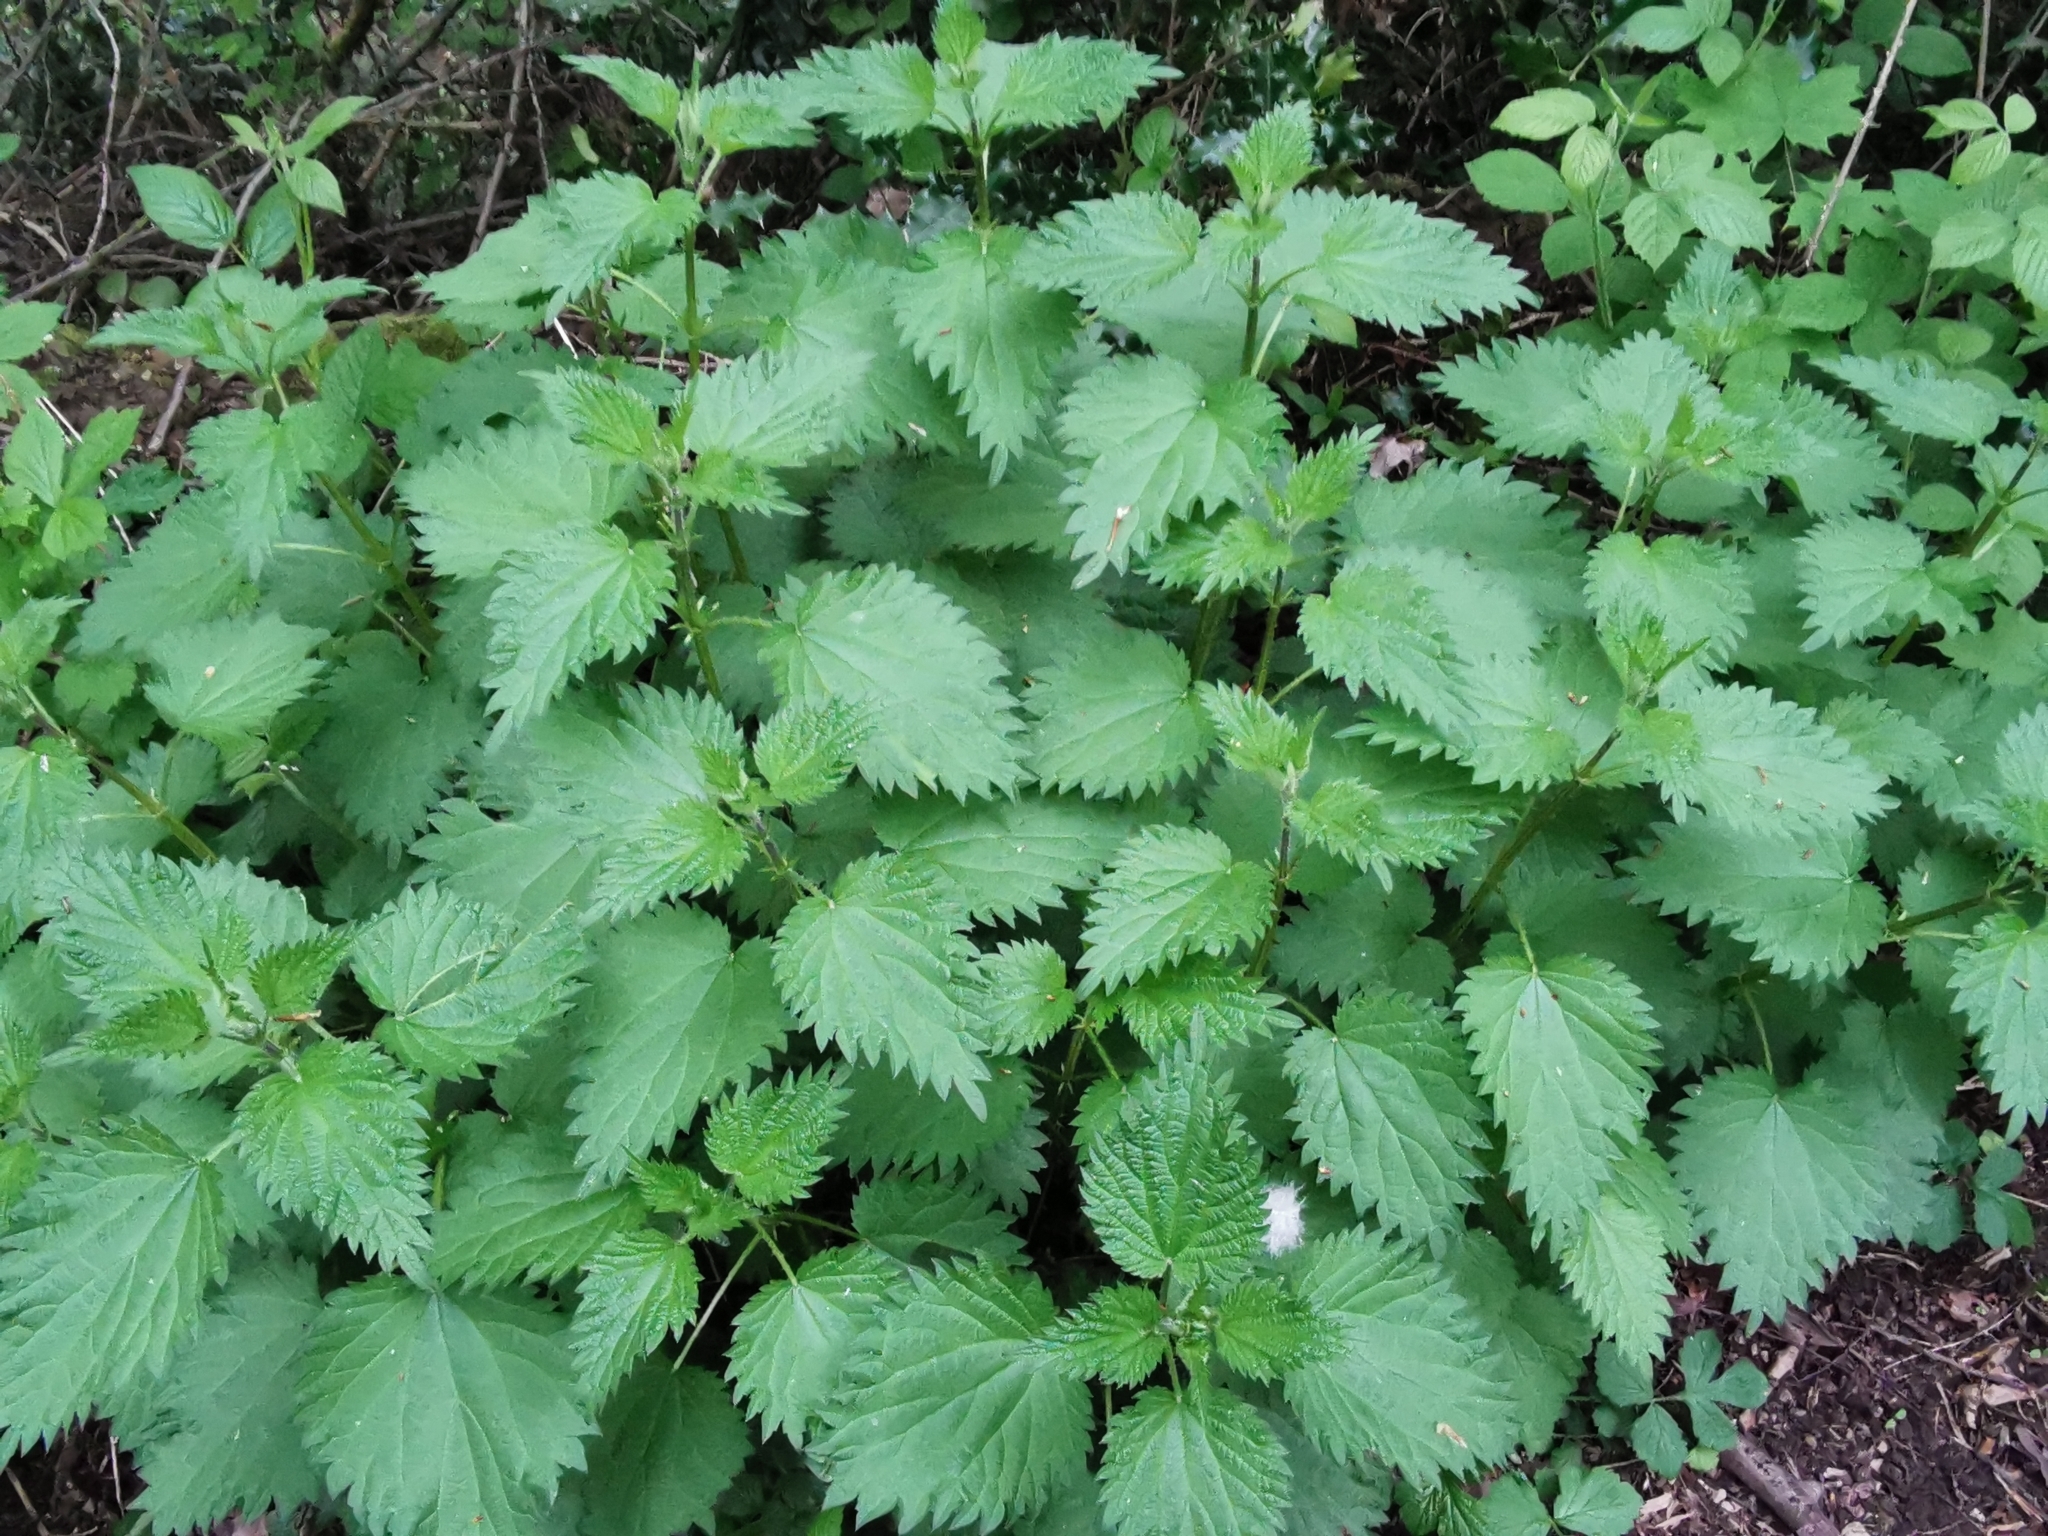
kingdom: Plantae
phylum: Tracheophyta
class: Magnoliopsida
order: Rosales
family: Urticaceae
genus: Urtica
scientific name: Urtica dioica
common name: Common nettle
